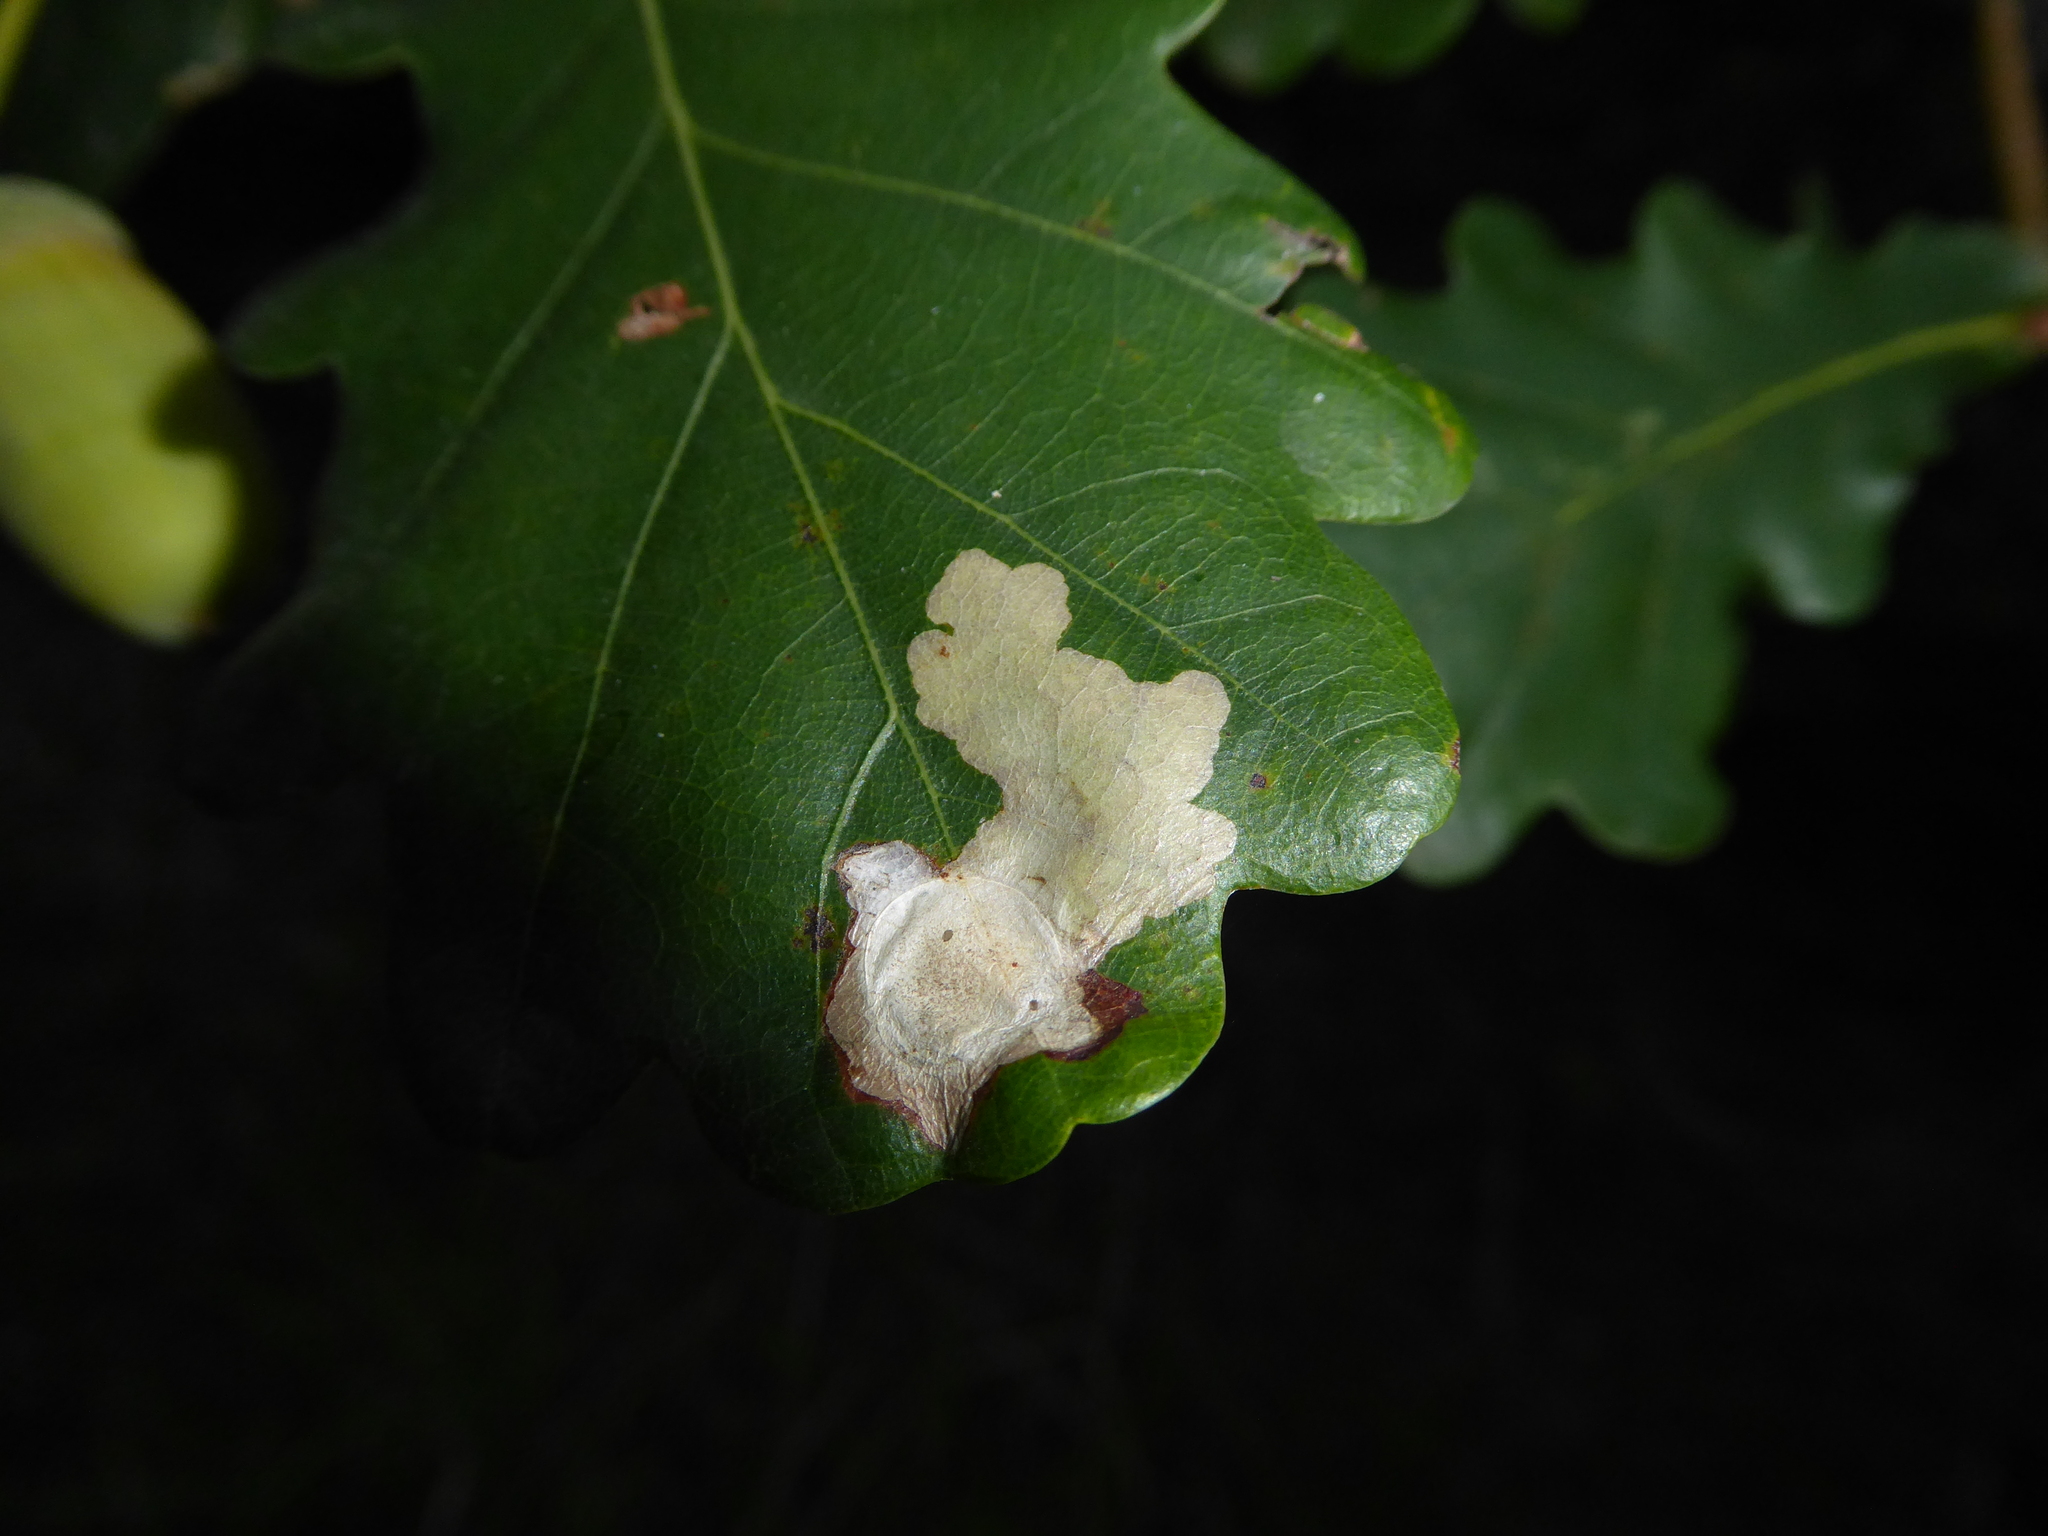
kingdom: Animalia
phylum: Arthropoda
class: Insecta
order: Lepidoptera
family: Tischeriidae
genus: Tischeria
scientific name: Tischeria ekebladella
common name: Oak carl
